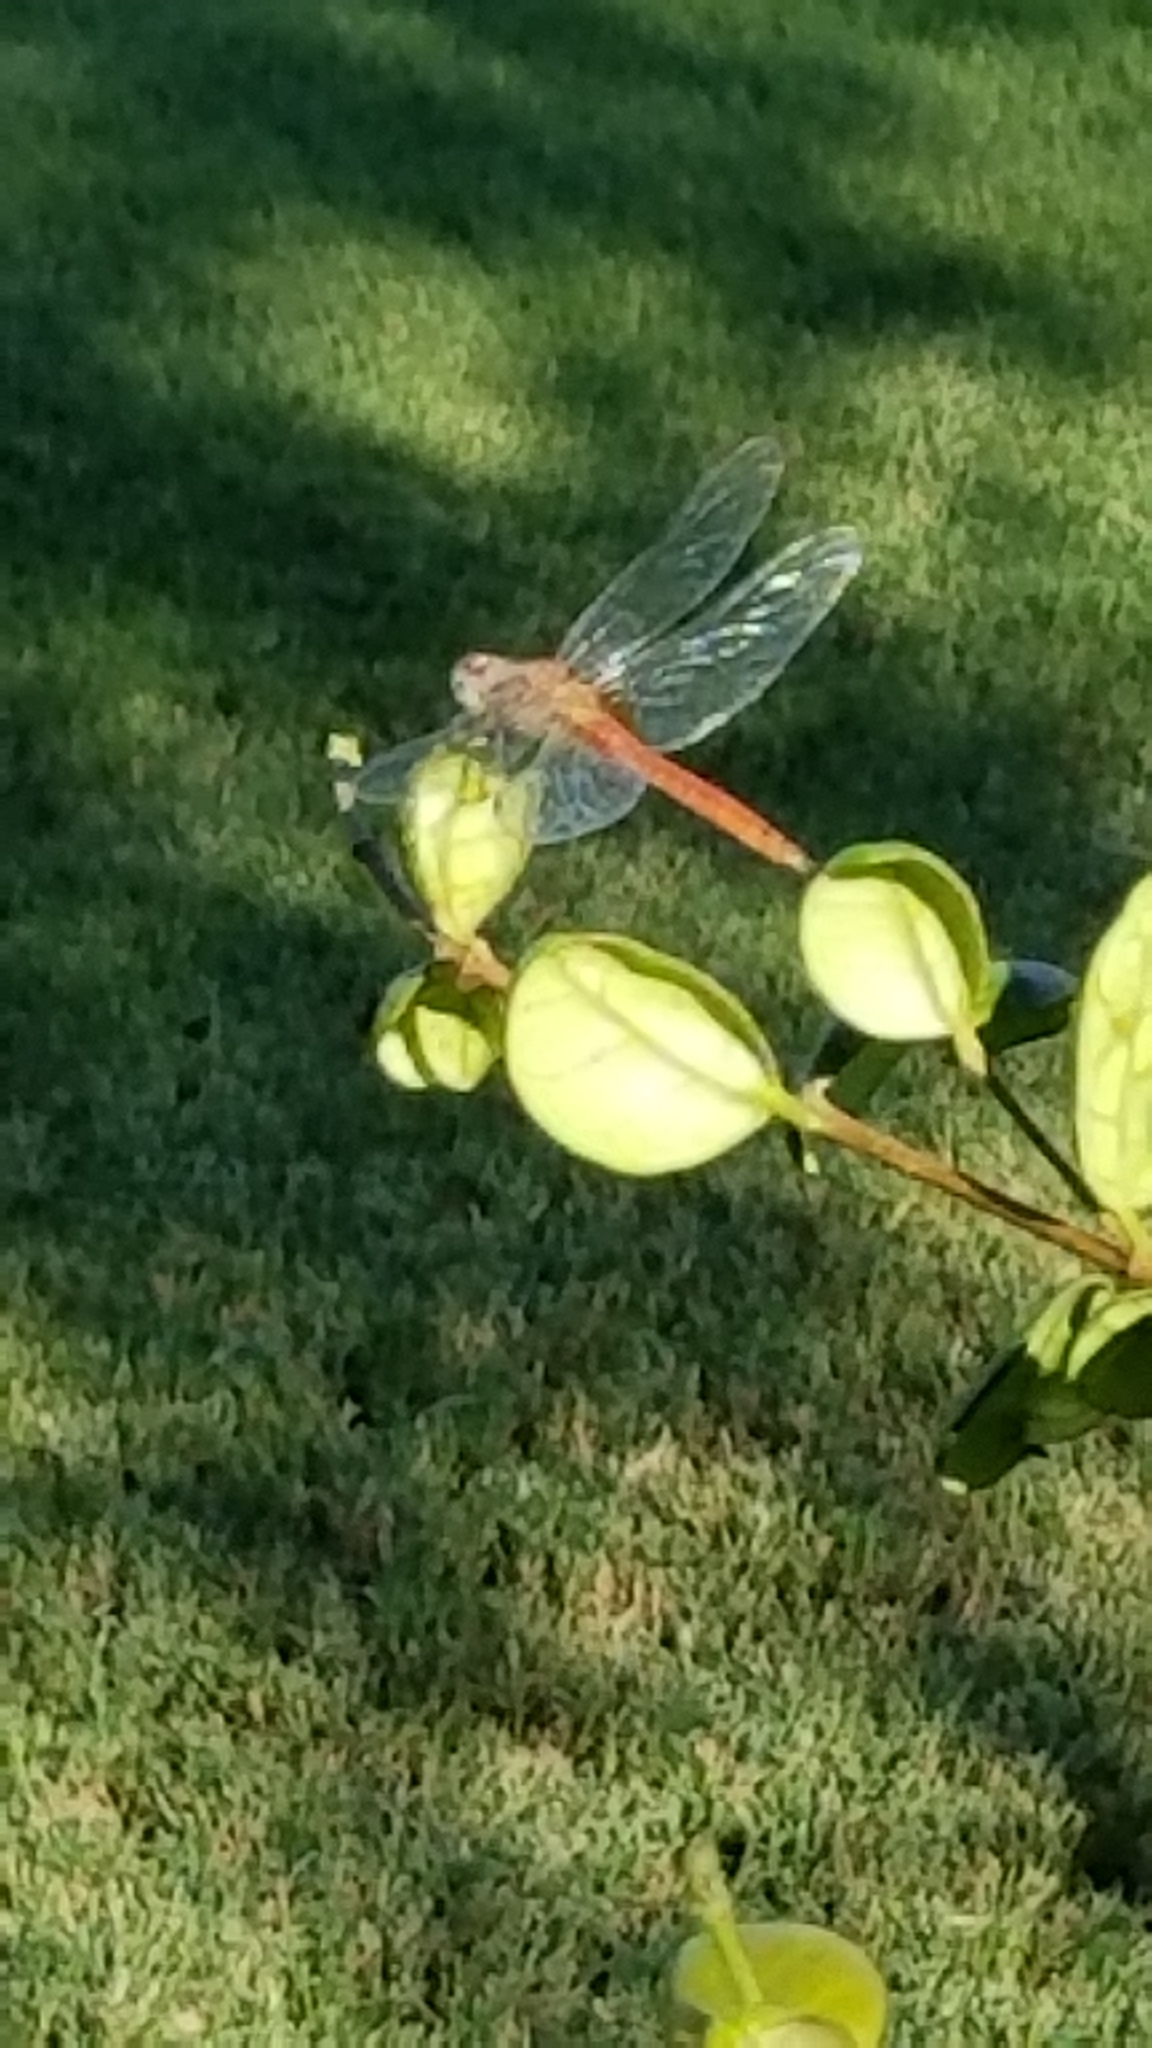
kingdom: Animalia
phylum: Arthropoda
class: Insecta
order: Odonata
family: Libellulidae
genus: Brachymesia
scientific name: Brachymesia furcata
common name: Red-taled pennant
